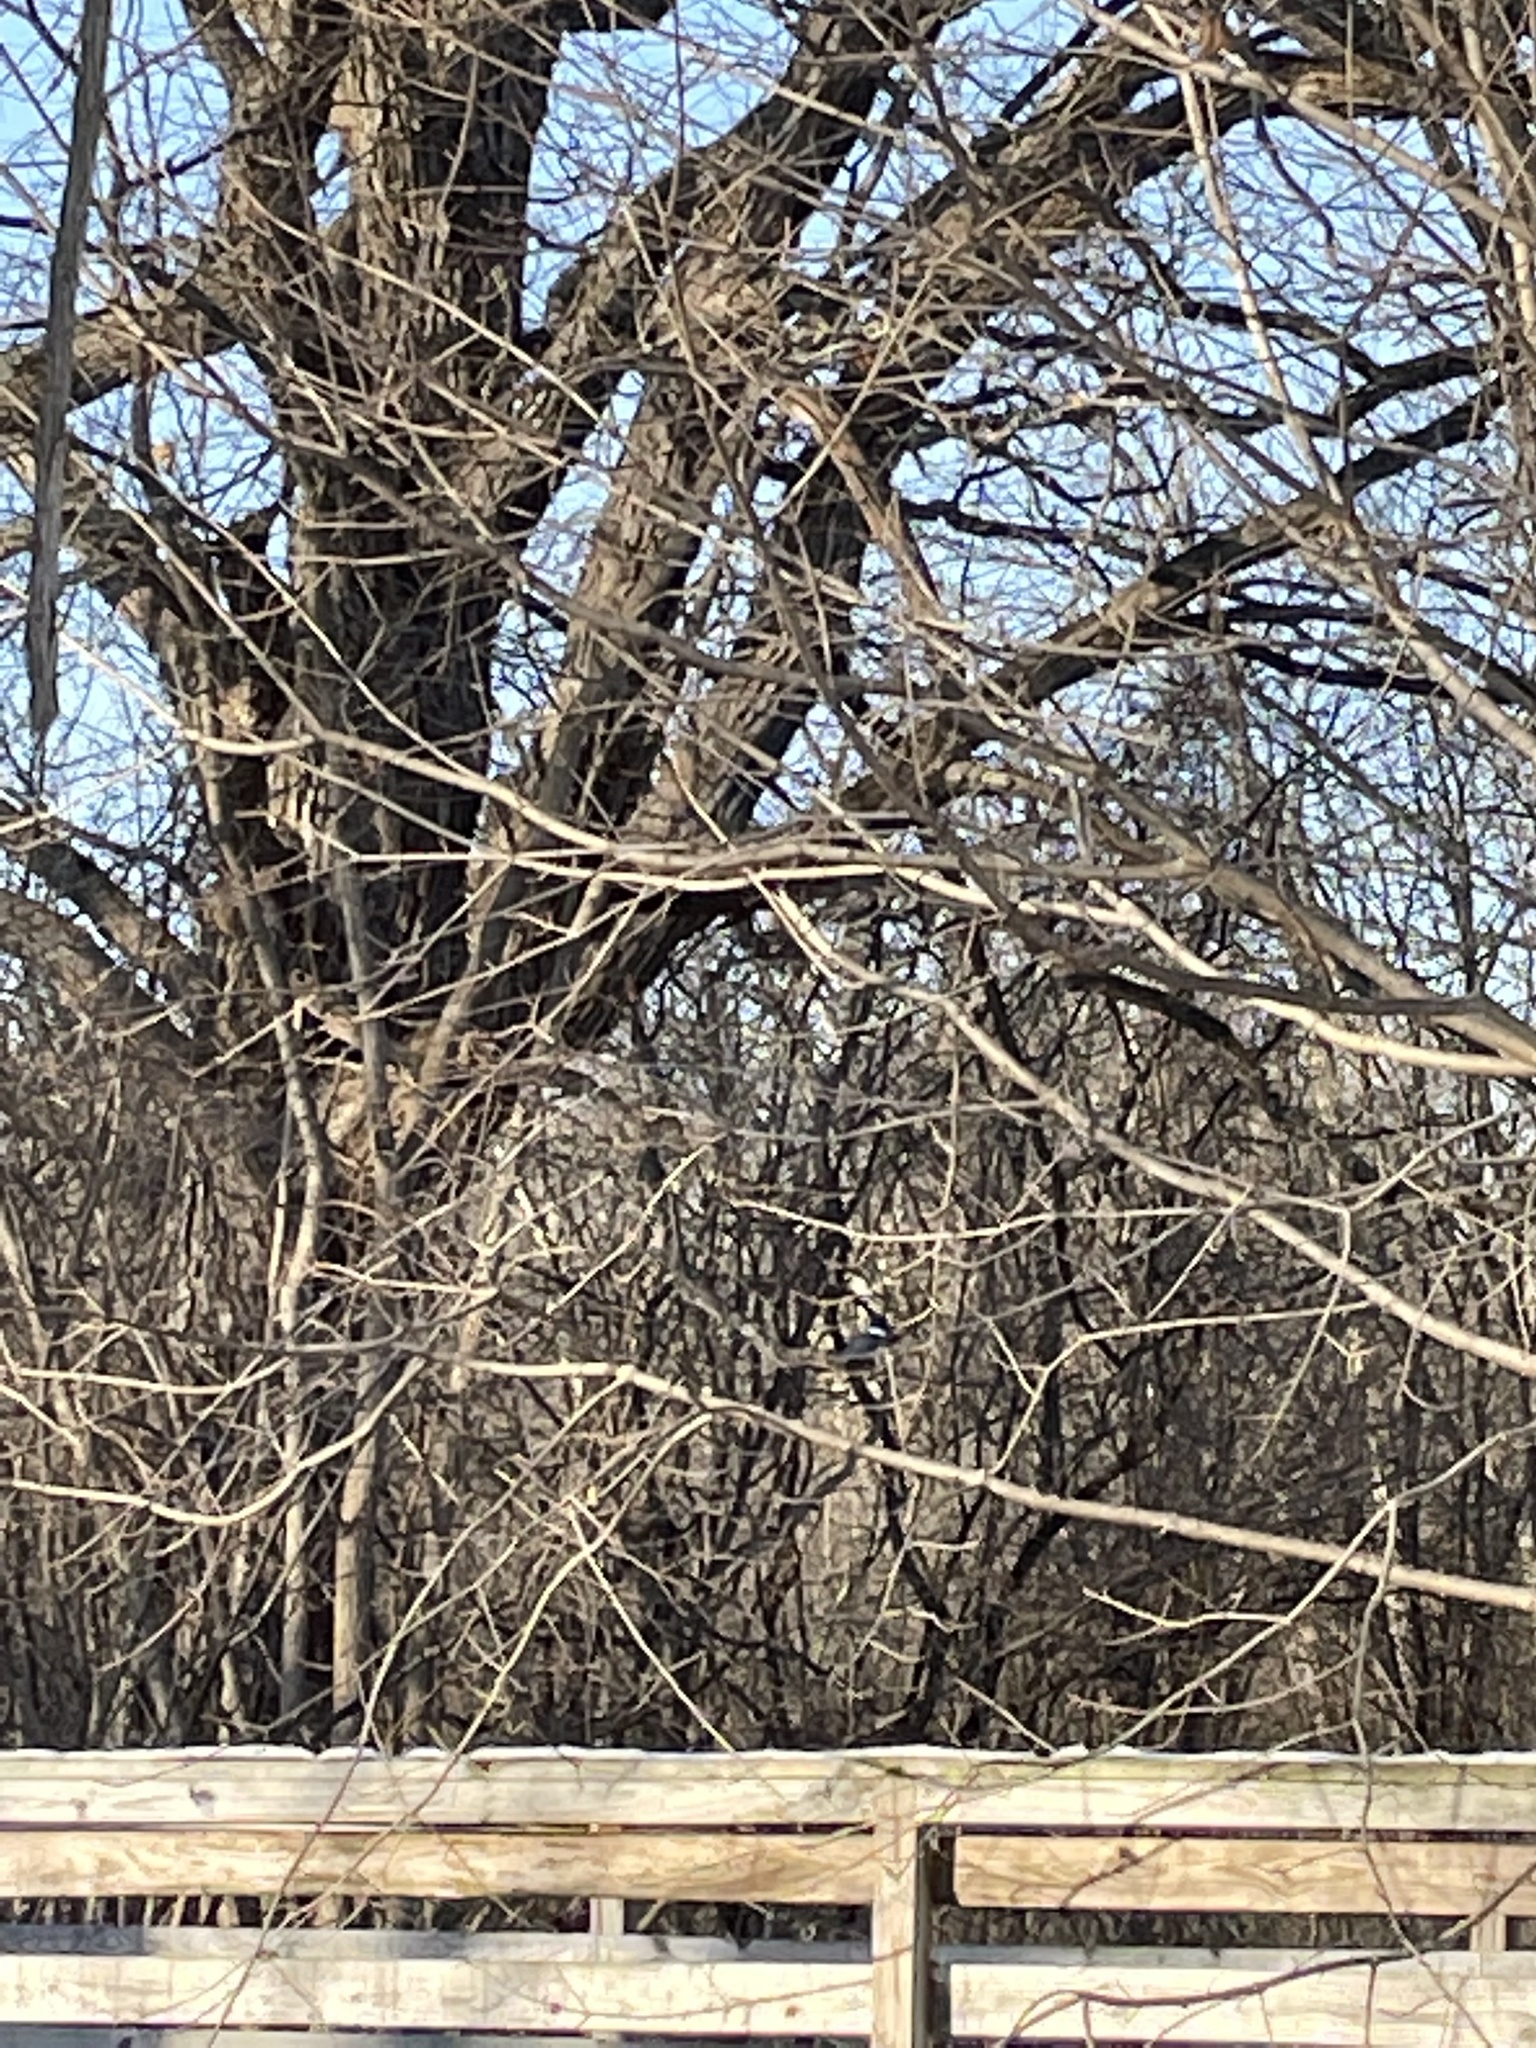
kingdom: Animalia
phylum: Chordata
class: Aves
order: Coraciiformes
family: Alcedinidae
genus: Megaceryle
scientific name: Megaceryle alcyon
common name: Belted kingfisher
